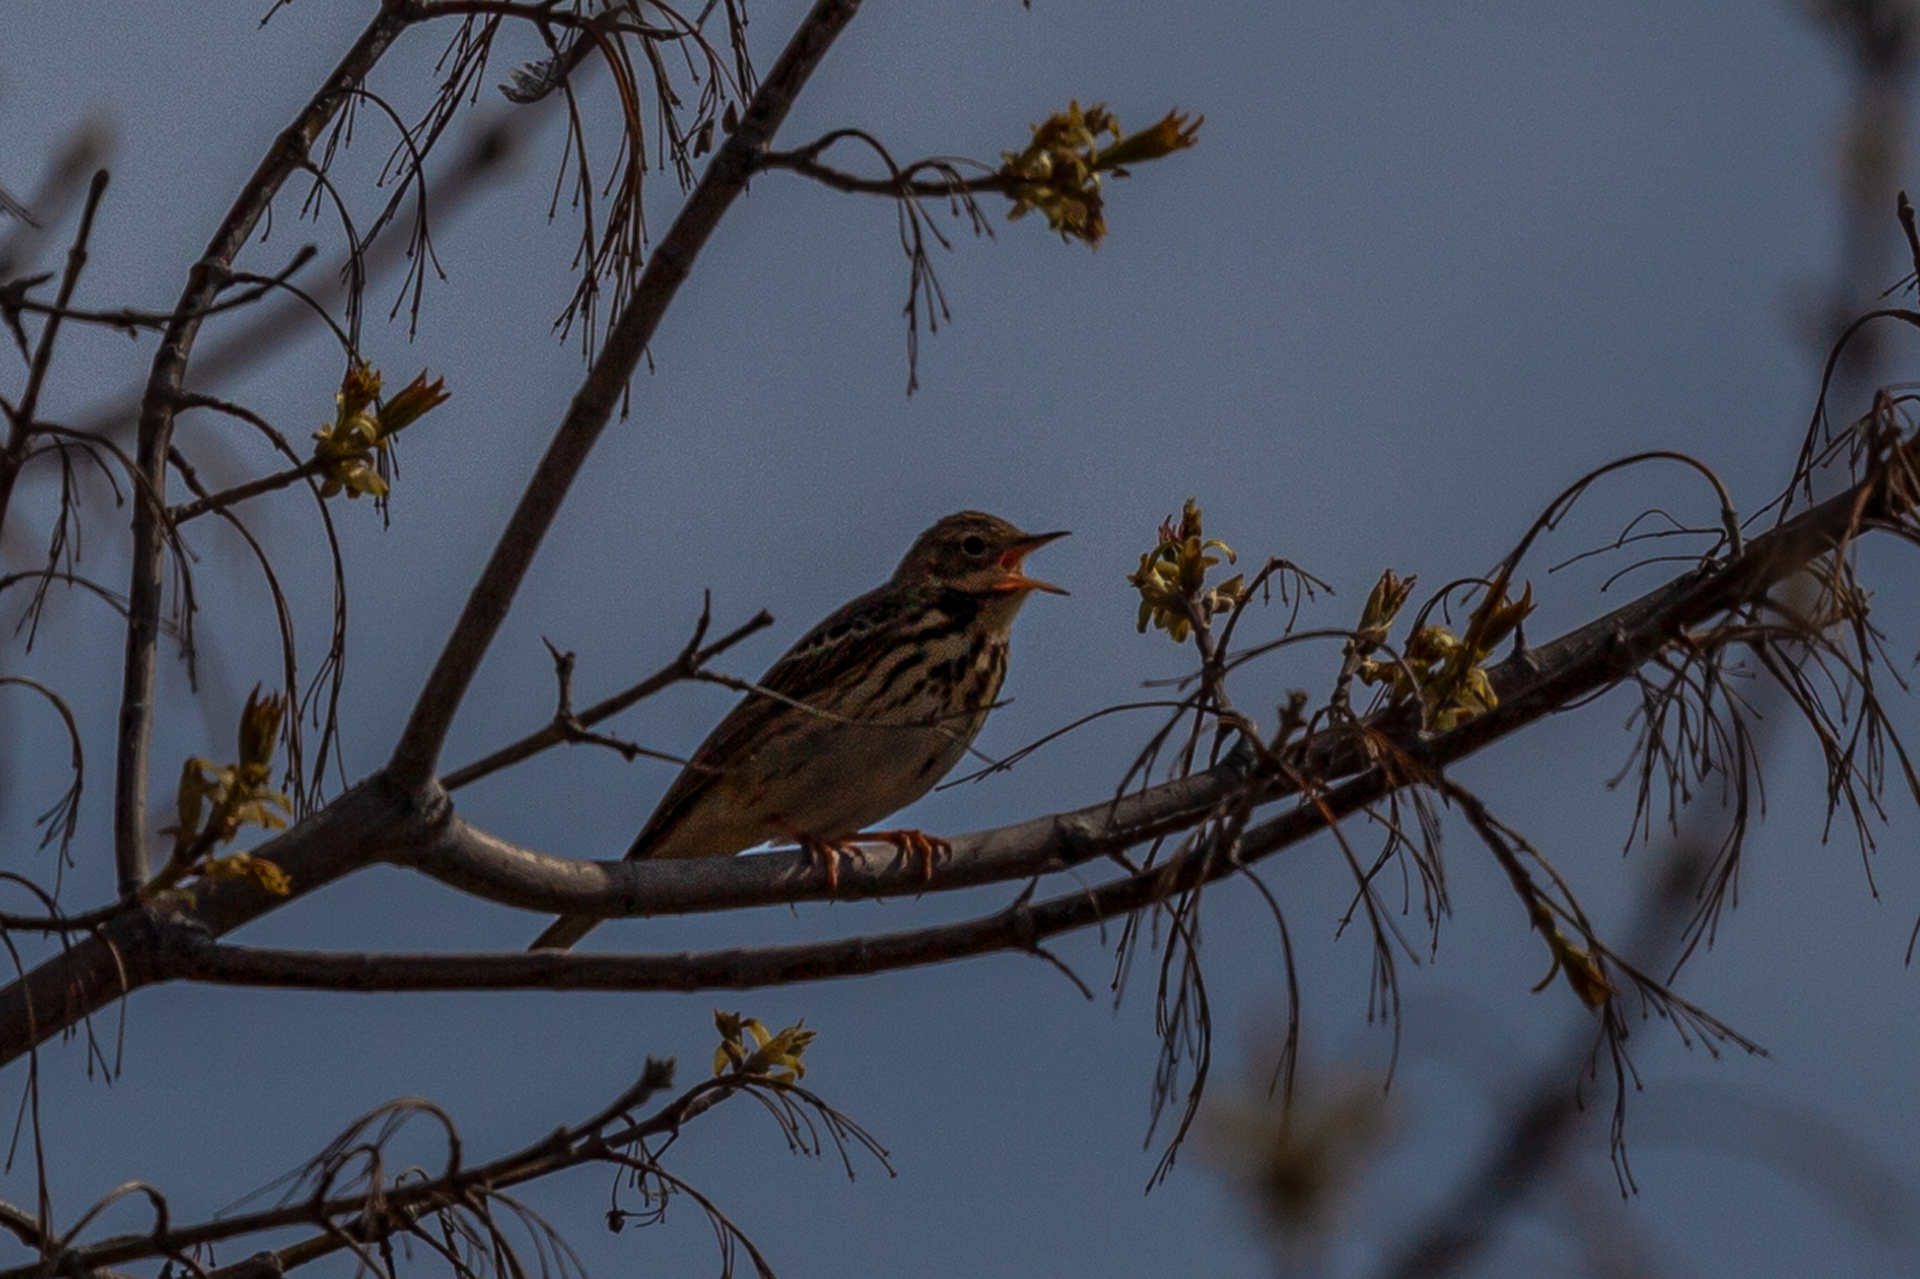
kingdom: Animalia
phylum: Chordata
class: Aves
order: Passeriformes
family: Motacillidae
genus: Anthus
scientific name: Anthus trivialis
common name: Tree pipit
